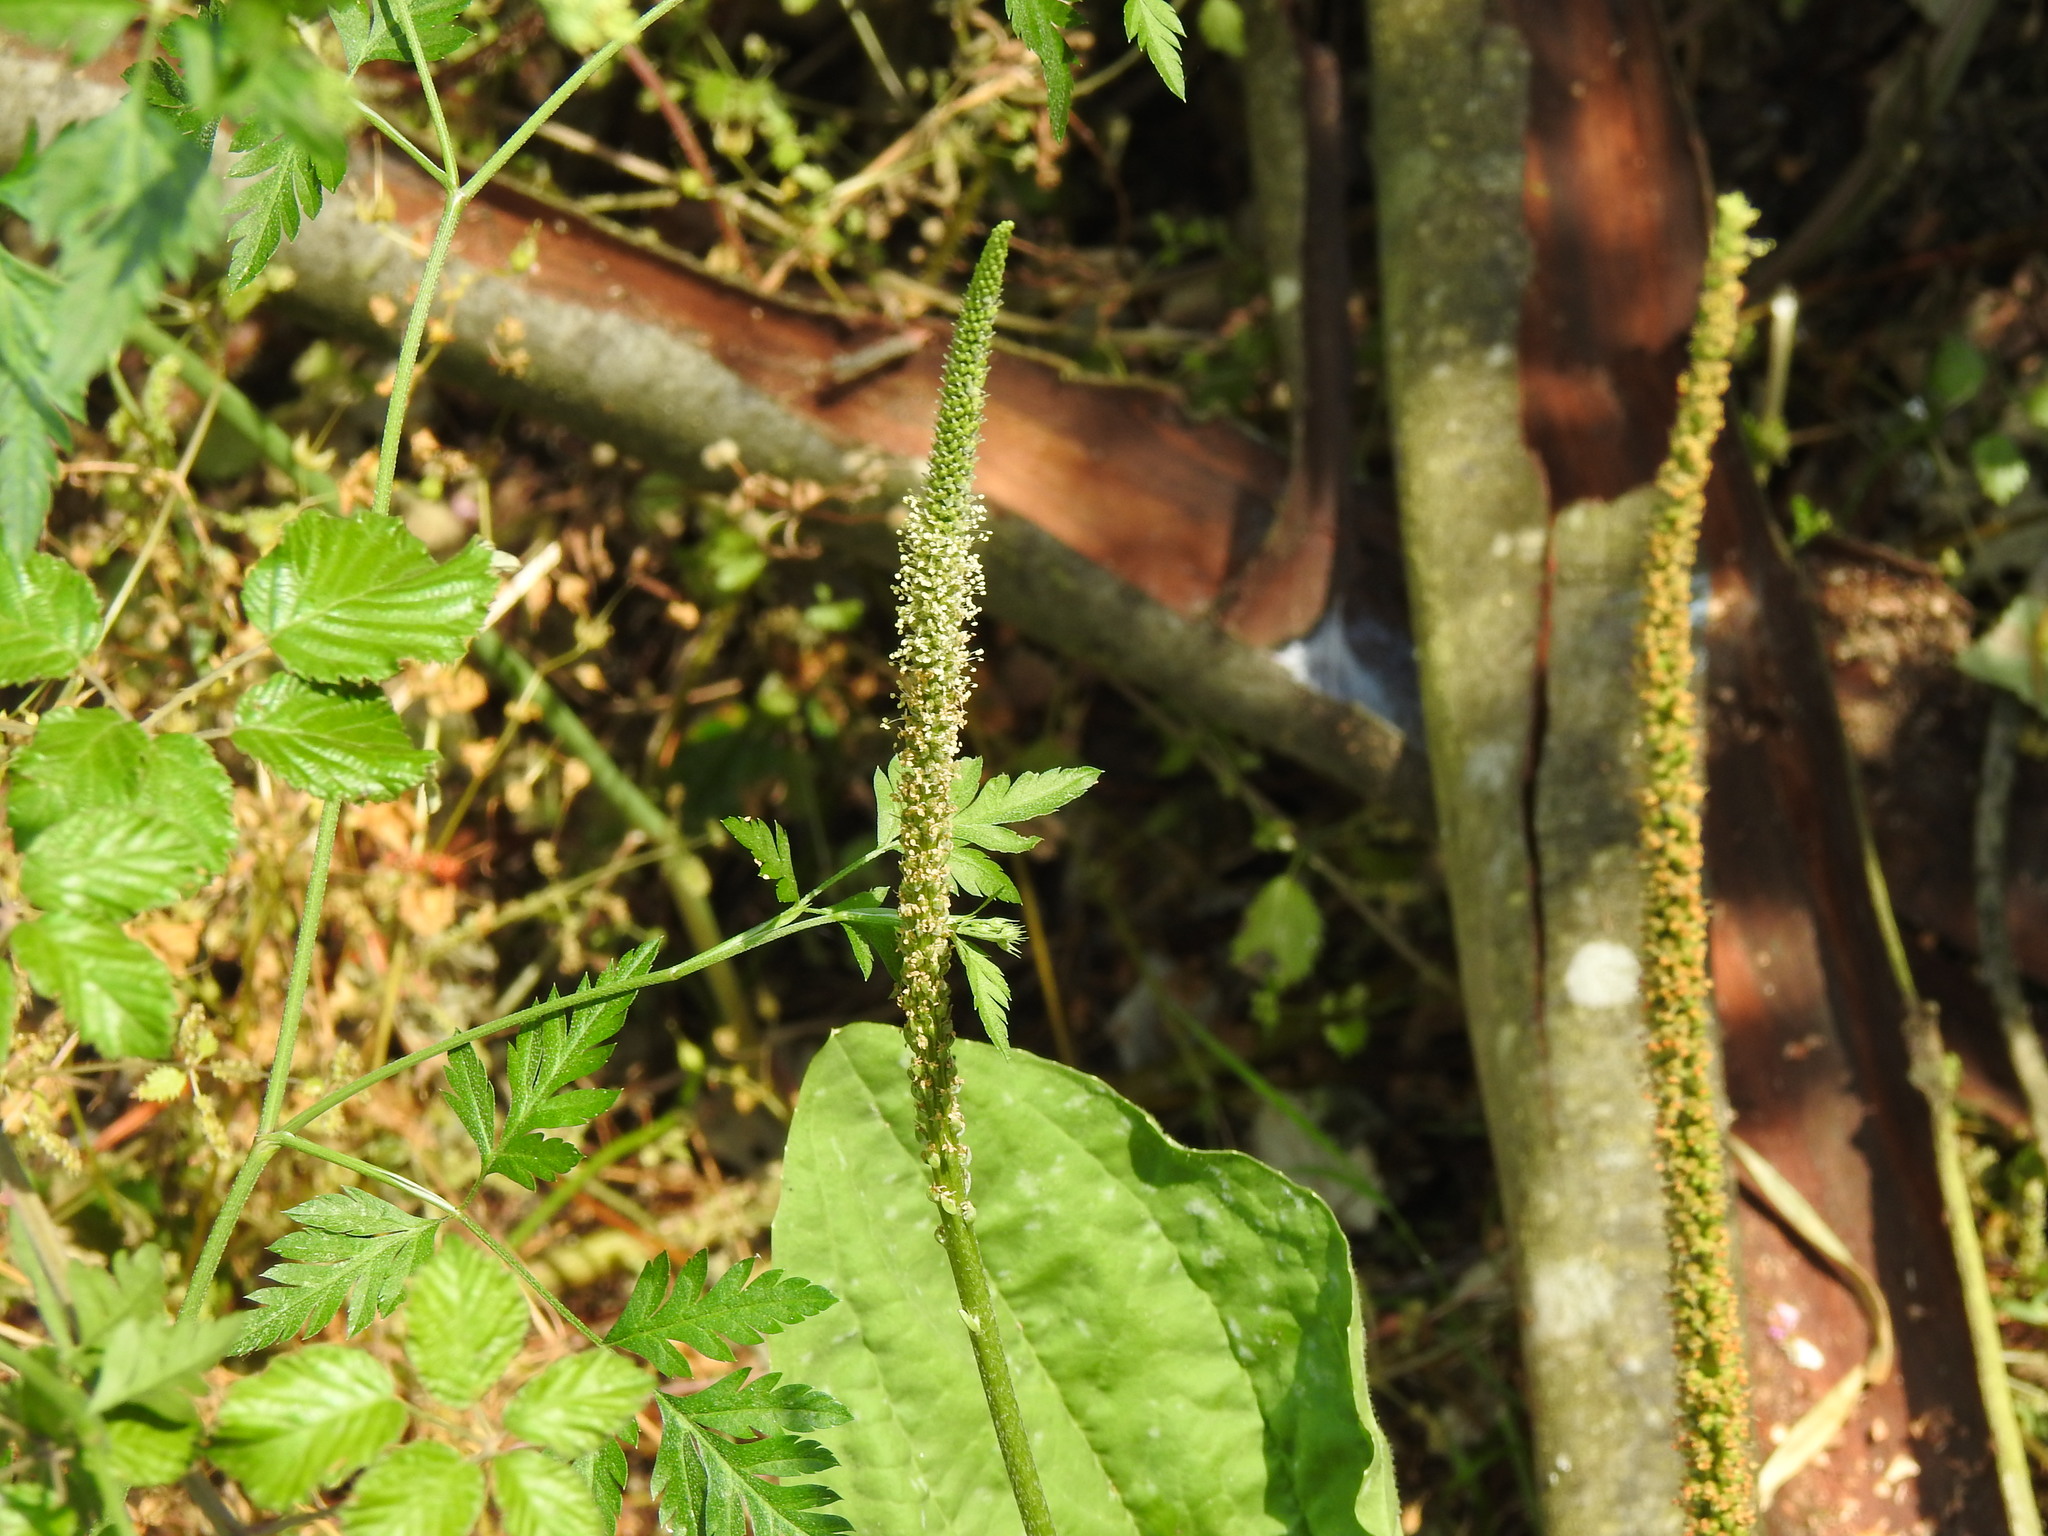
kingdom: Plantae
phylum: Tracheophyta
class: Magnoliopsida
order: Lamiales
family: Plantaginaceae
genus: Plantago
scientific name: Plantago major
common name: Common plantain
